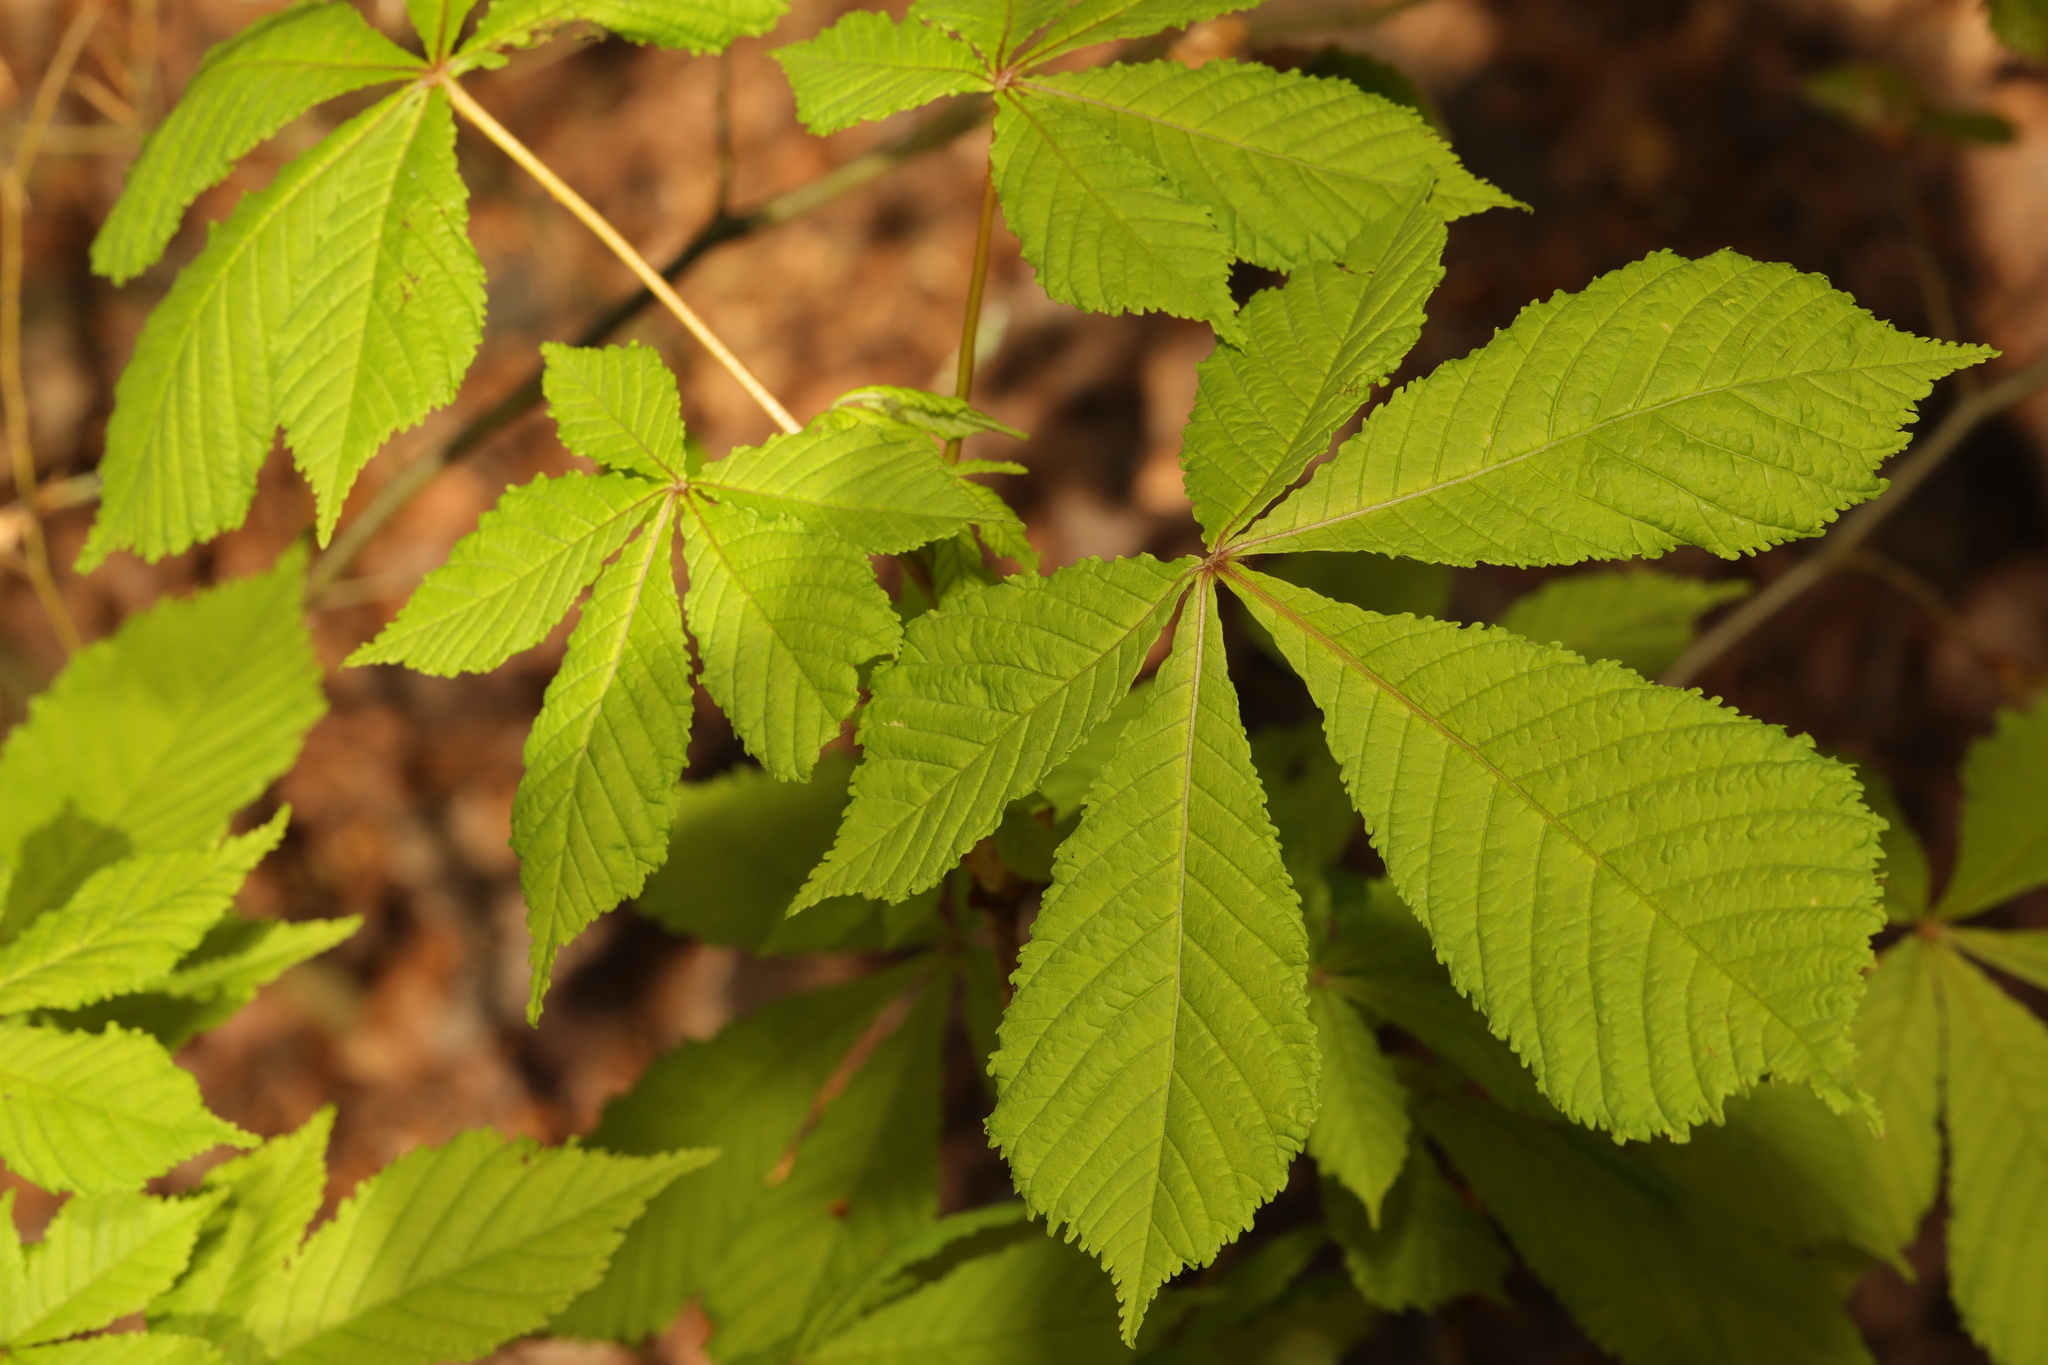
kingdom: Plantae
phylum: Tracheophyta
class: Magnoliopsida
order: Sapindales
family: Sapindaceae
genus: Aesculus
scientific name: Aesculus hippocastanum
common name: Horse-chestnut
